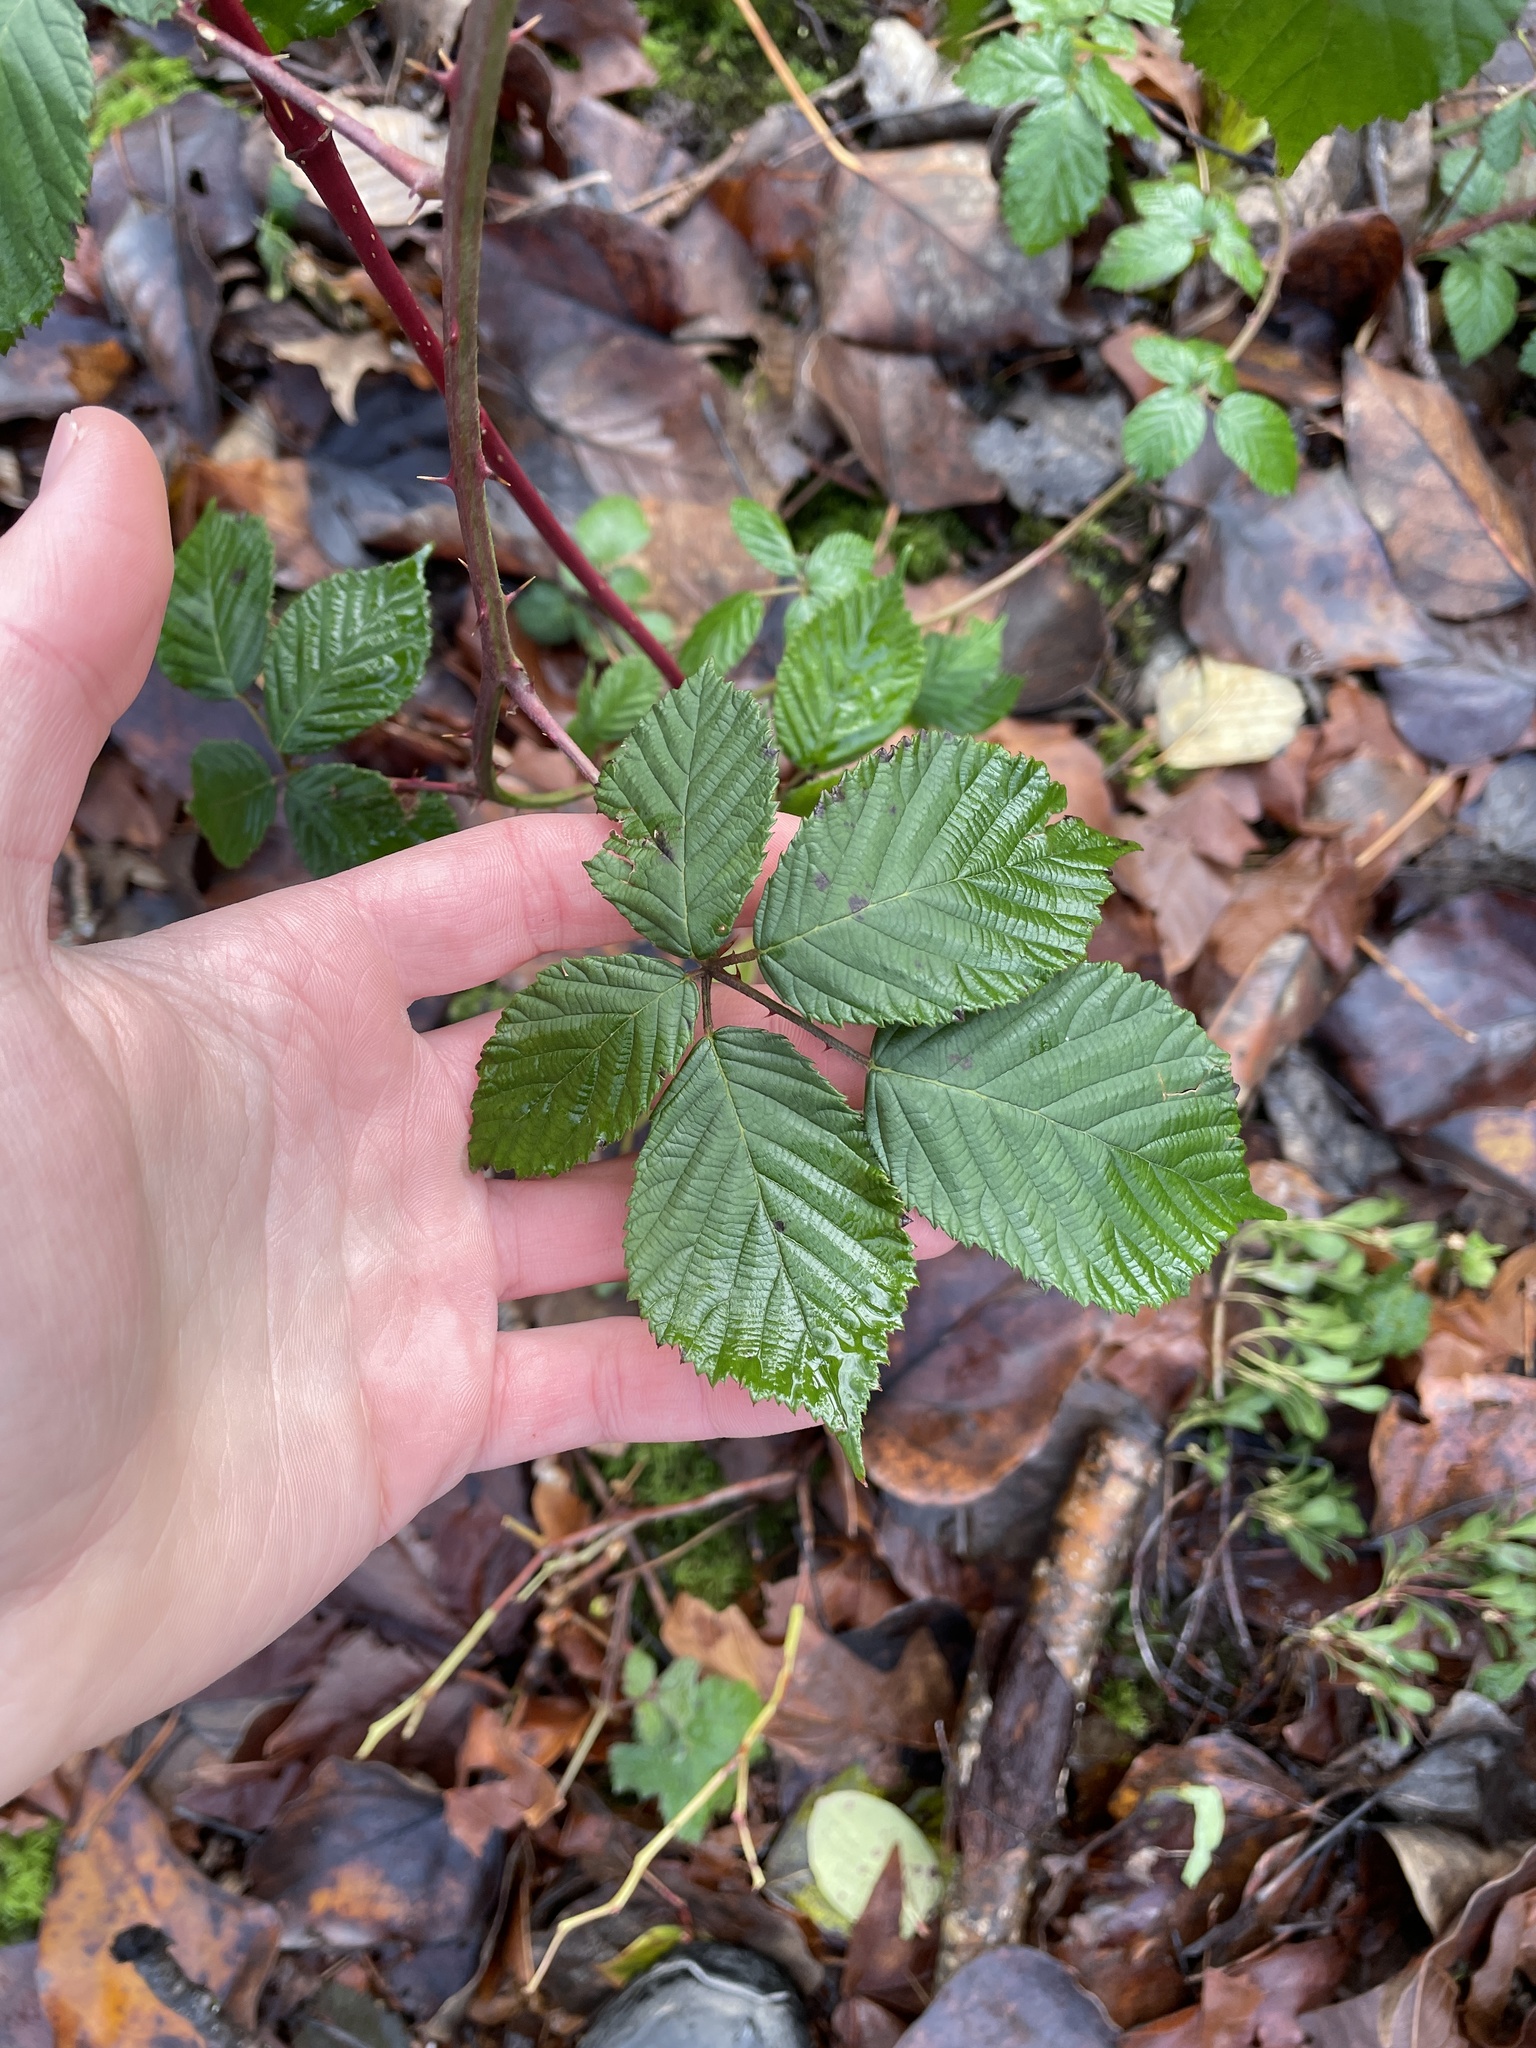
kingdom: Plantae
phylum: Tracheophyta
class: Magnoliopsida
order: Rosales
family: Rosaceae
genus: Rubus
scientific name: Rubus bifrons
